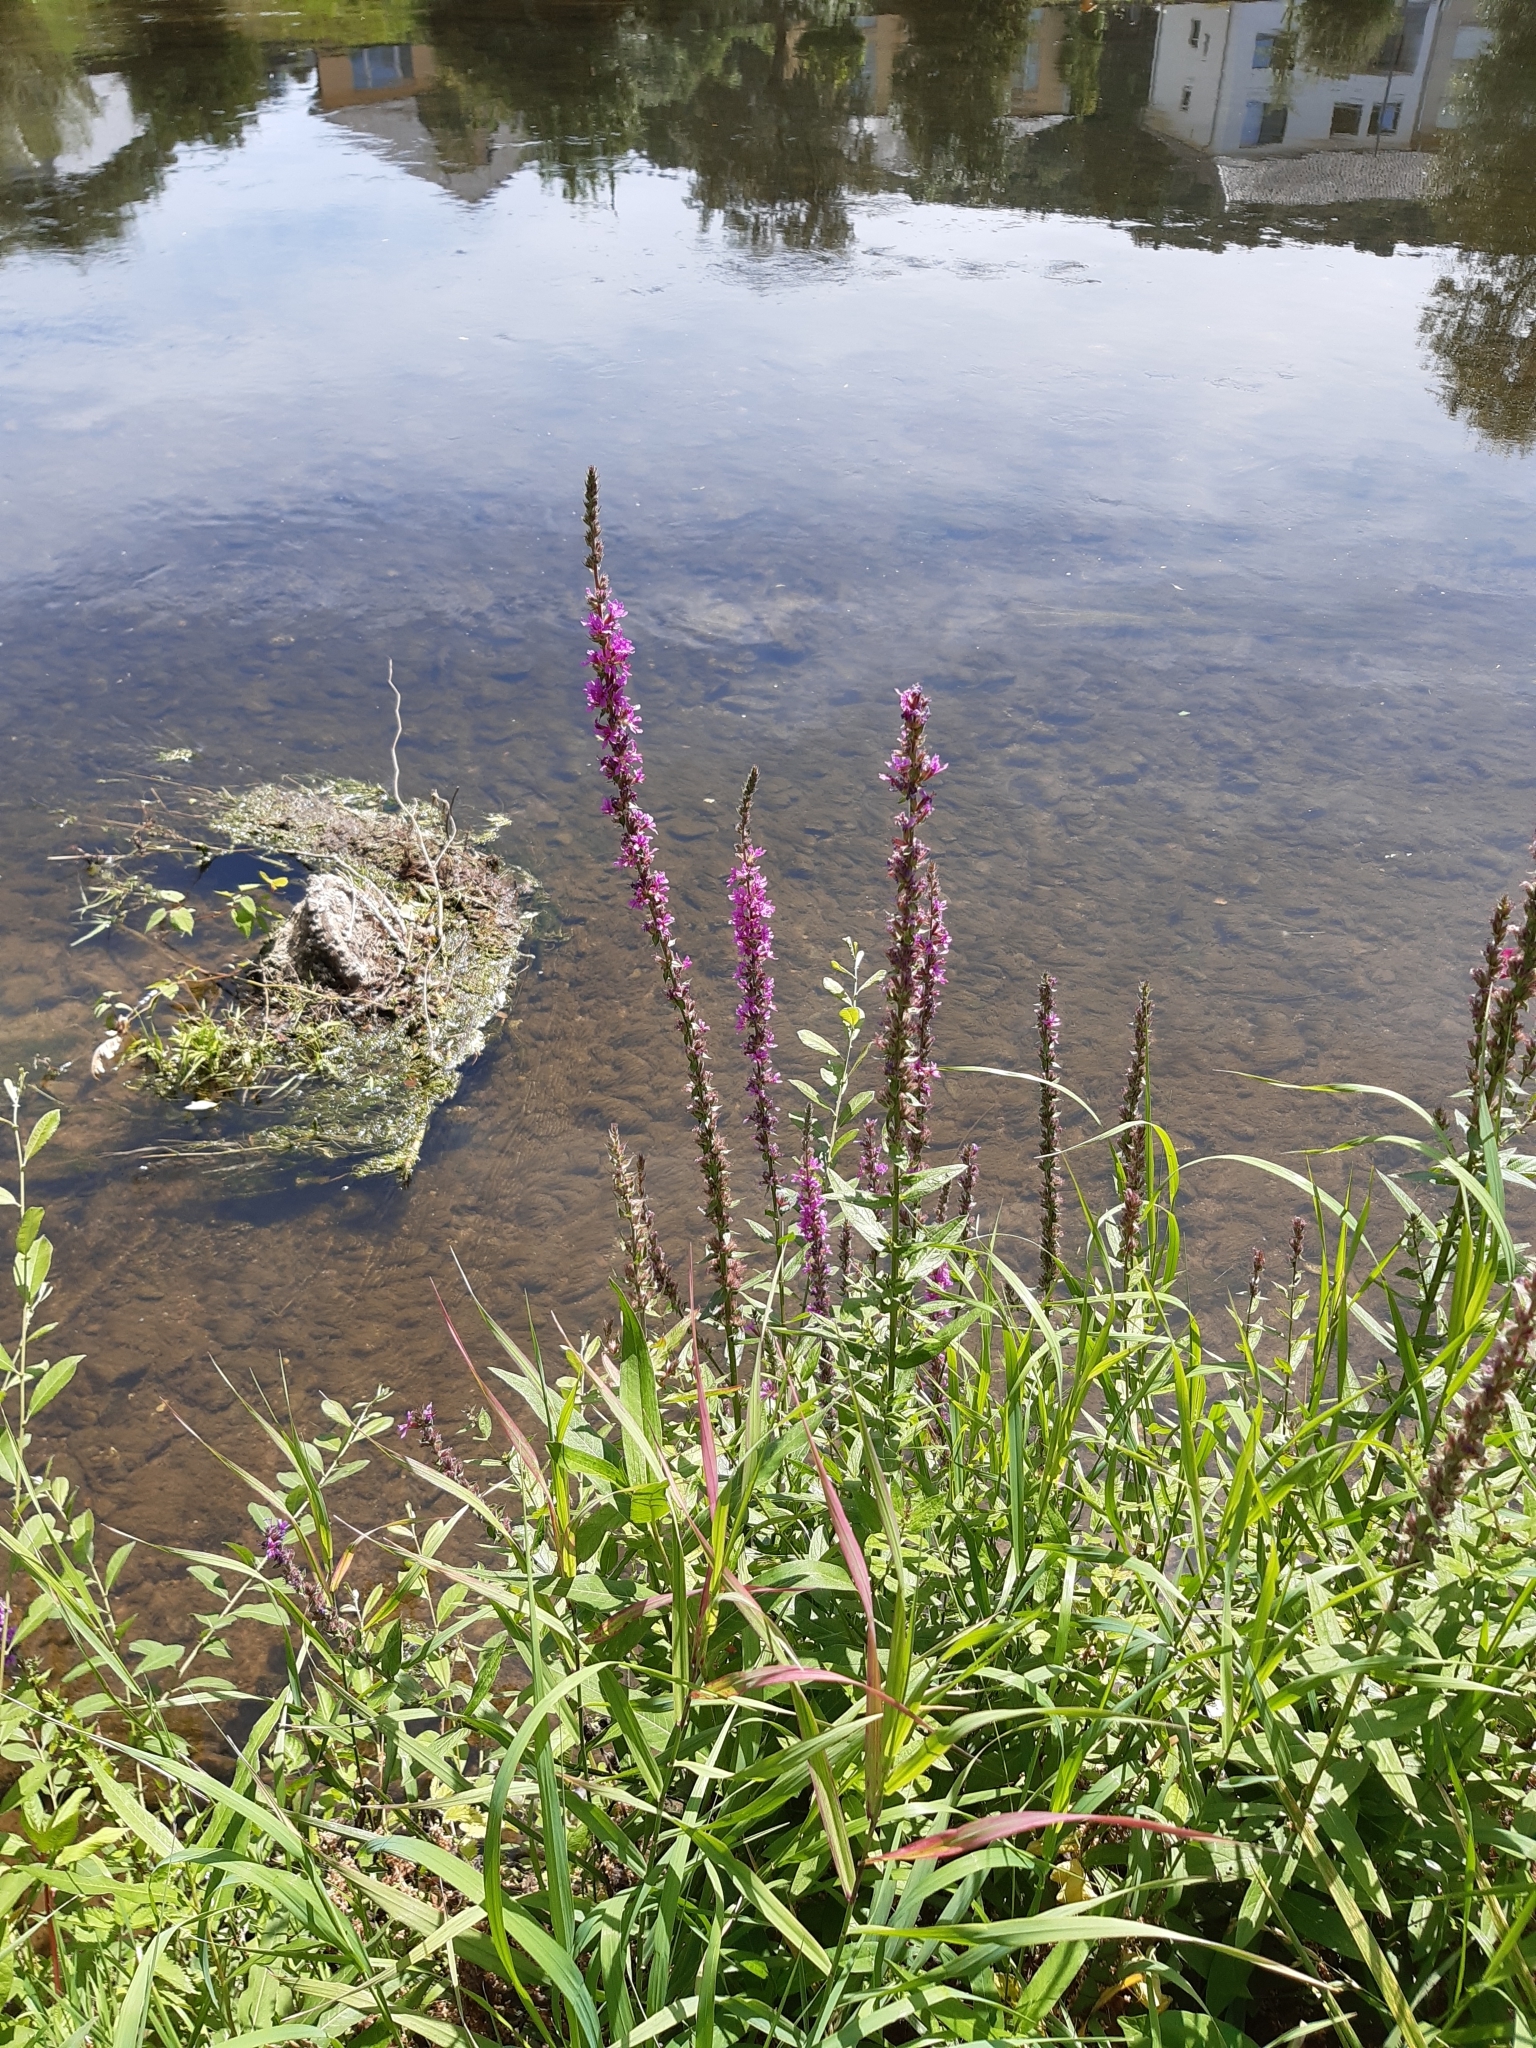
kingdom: Plantae
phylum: Tracheophyta
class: Magnoliopsida
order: Myrtales
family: Lythraceae
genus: Lythrum
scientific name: Lythrum salicaria
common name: Purple loosestrife
